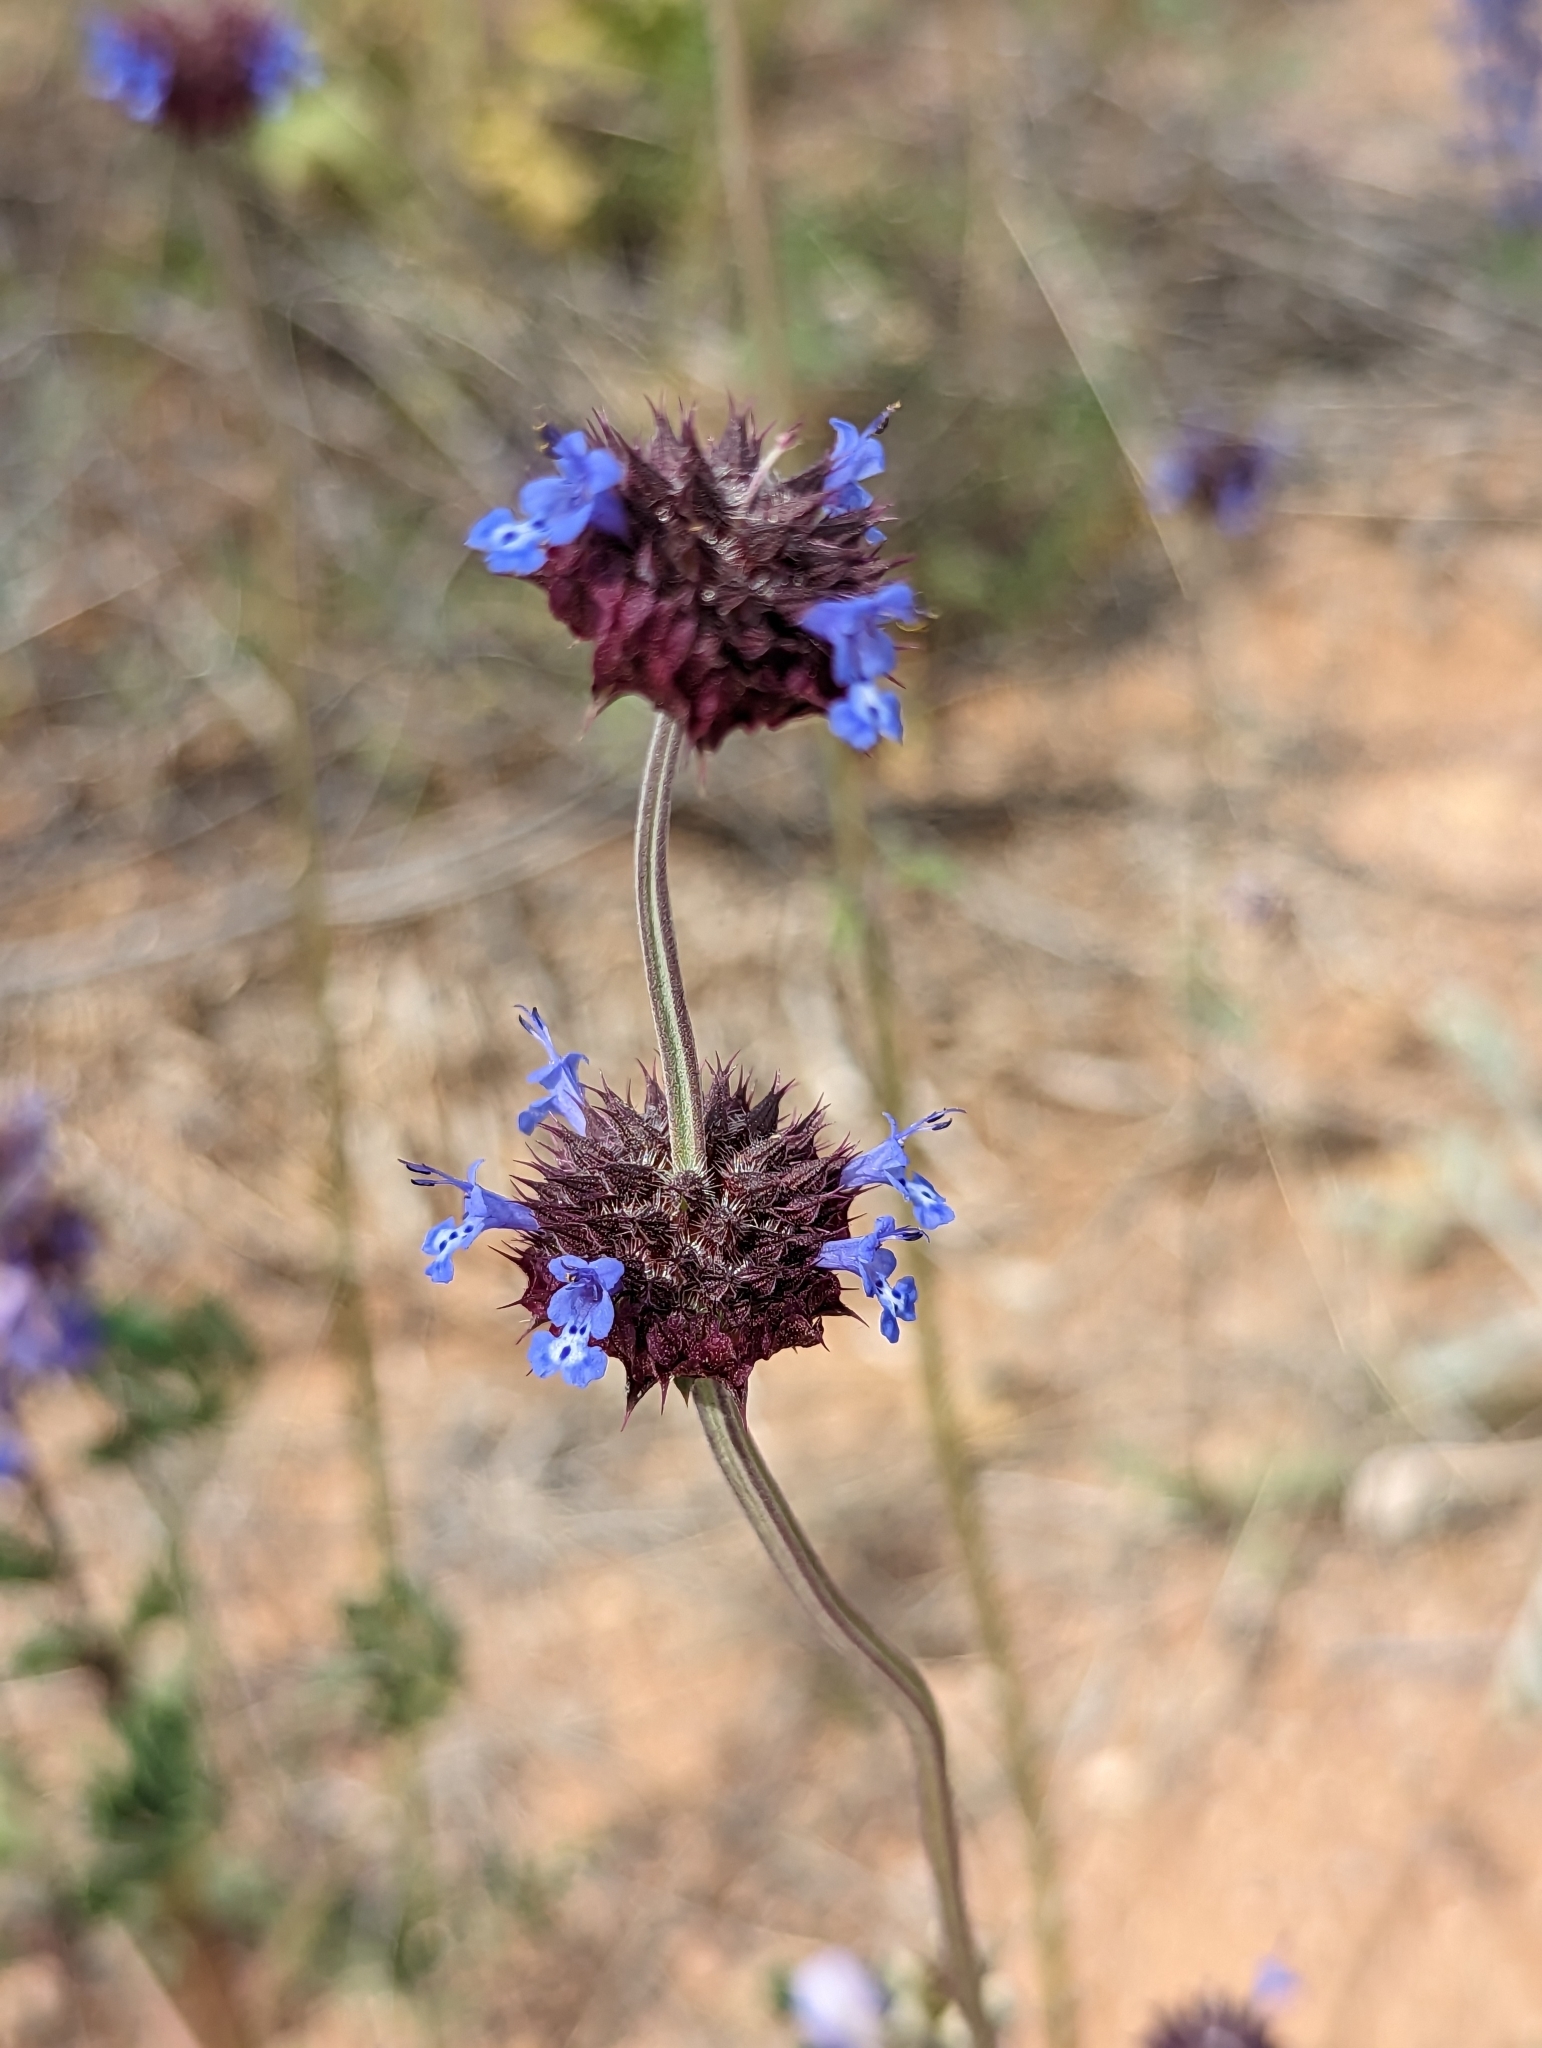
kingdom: Plantae
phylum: Tracheophyta
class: Magnoliopsida
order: Lamiales
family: Lamiaceae
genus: Salvia
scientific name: Salvia columbariae
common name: Chia
